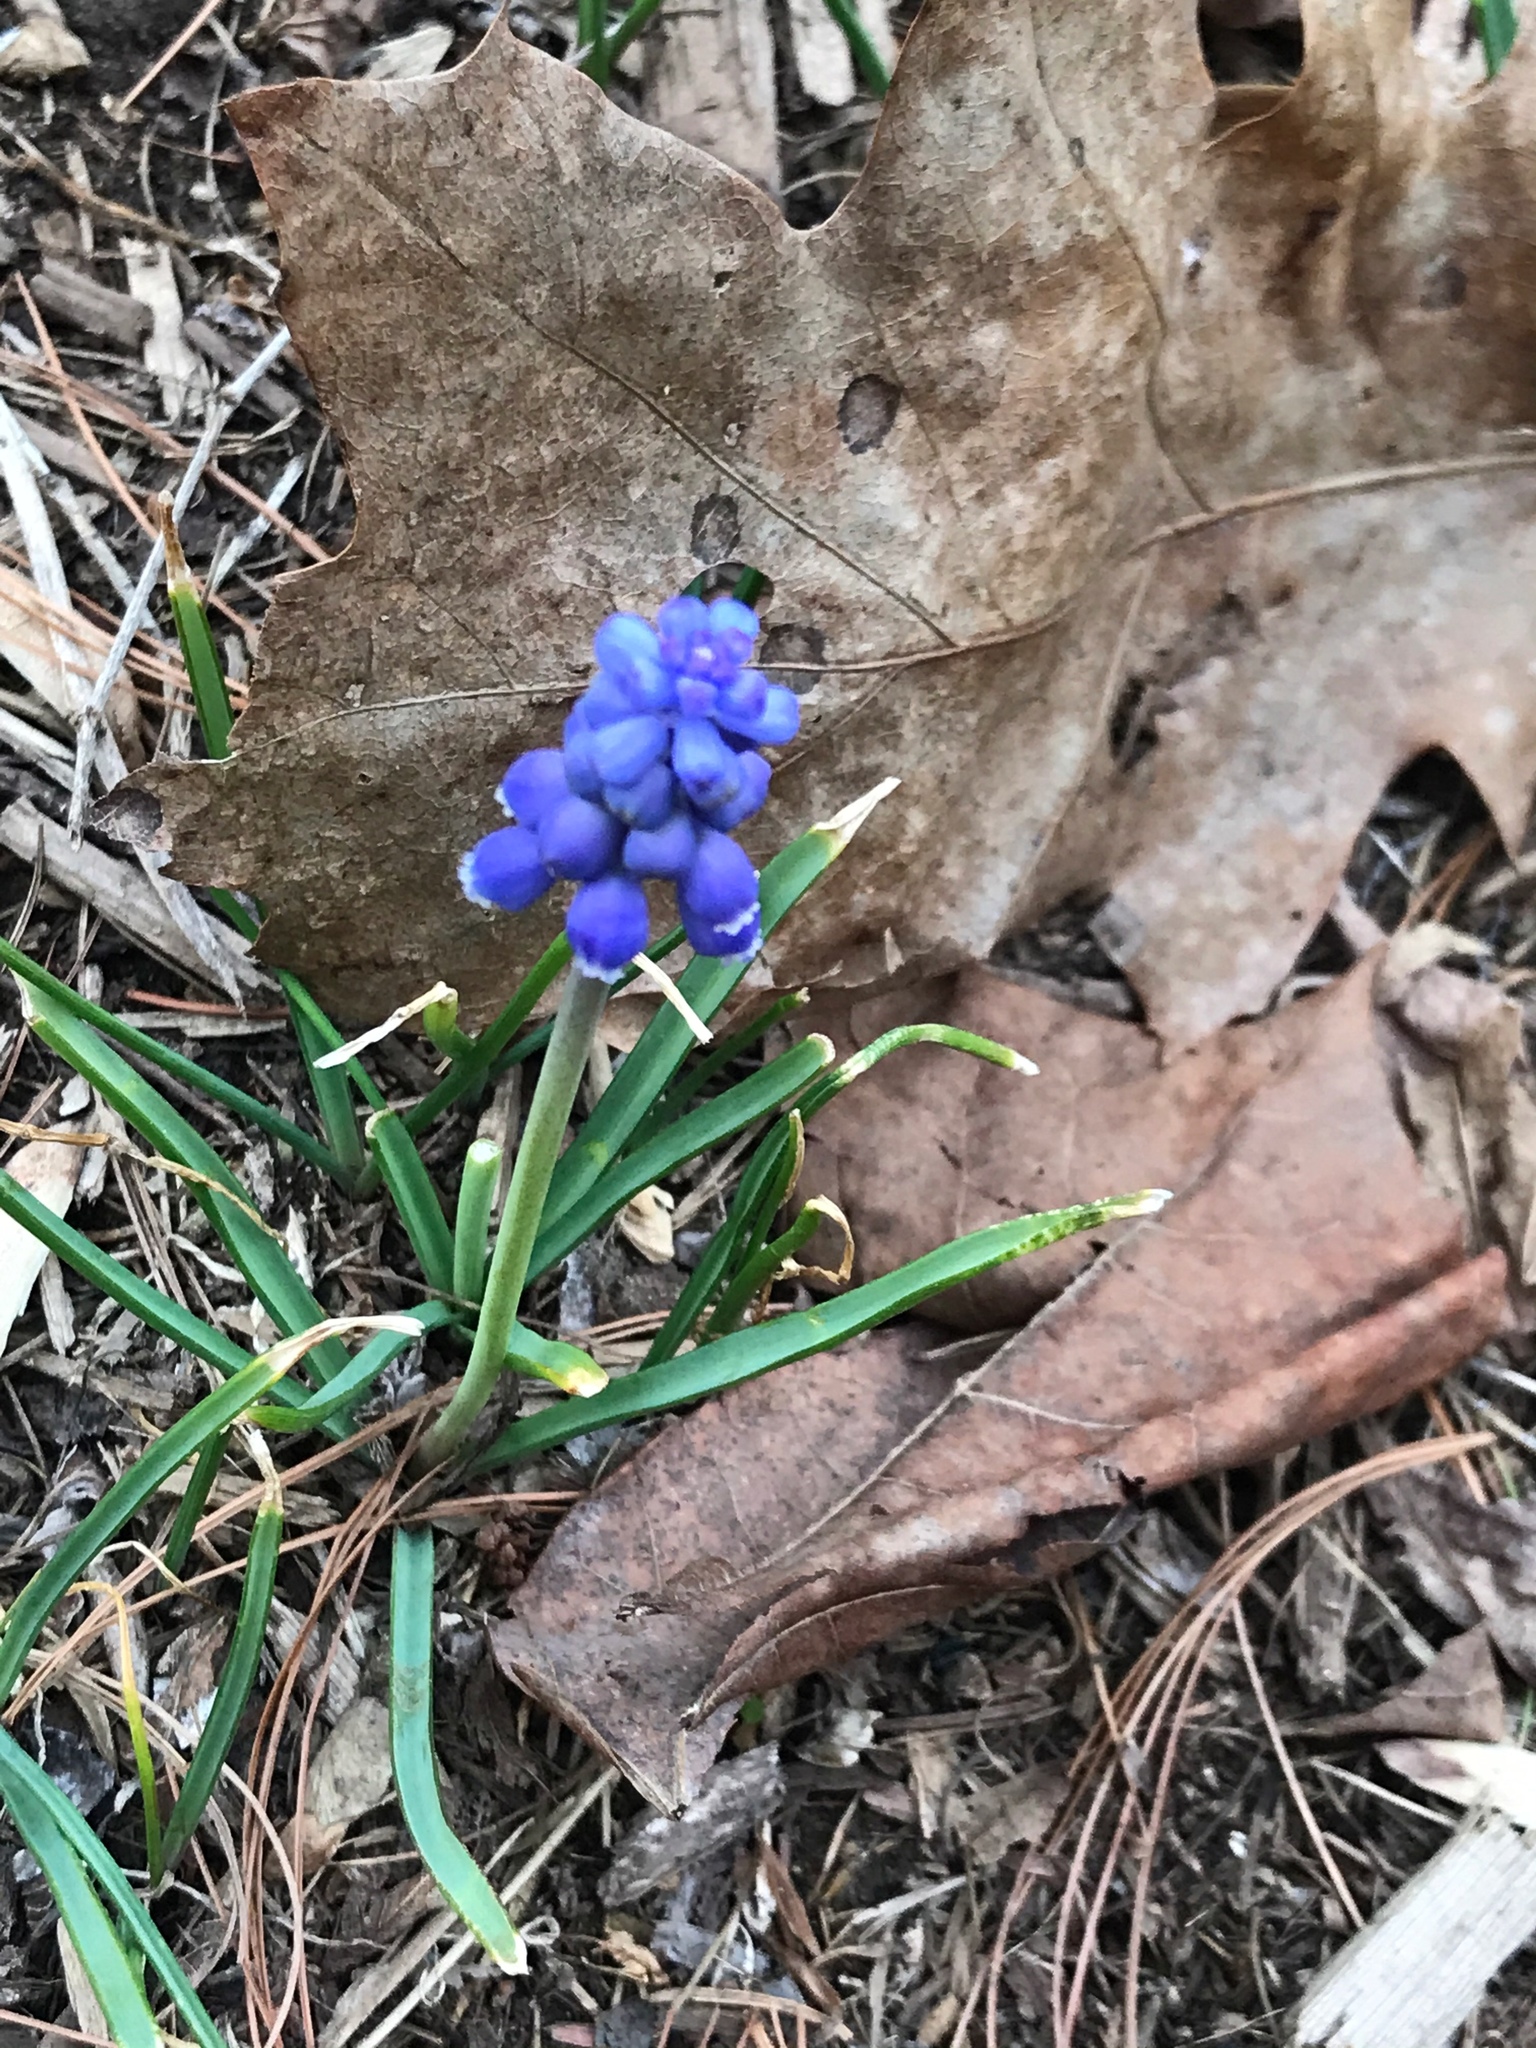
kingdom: Plantae
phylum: Tracheophyta
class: Liliopsida
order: Asparagales
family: Asparagaceae
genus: Muscari
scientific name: Muscari neglectum
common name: Grape-hyacinth
